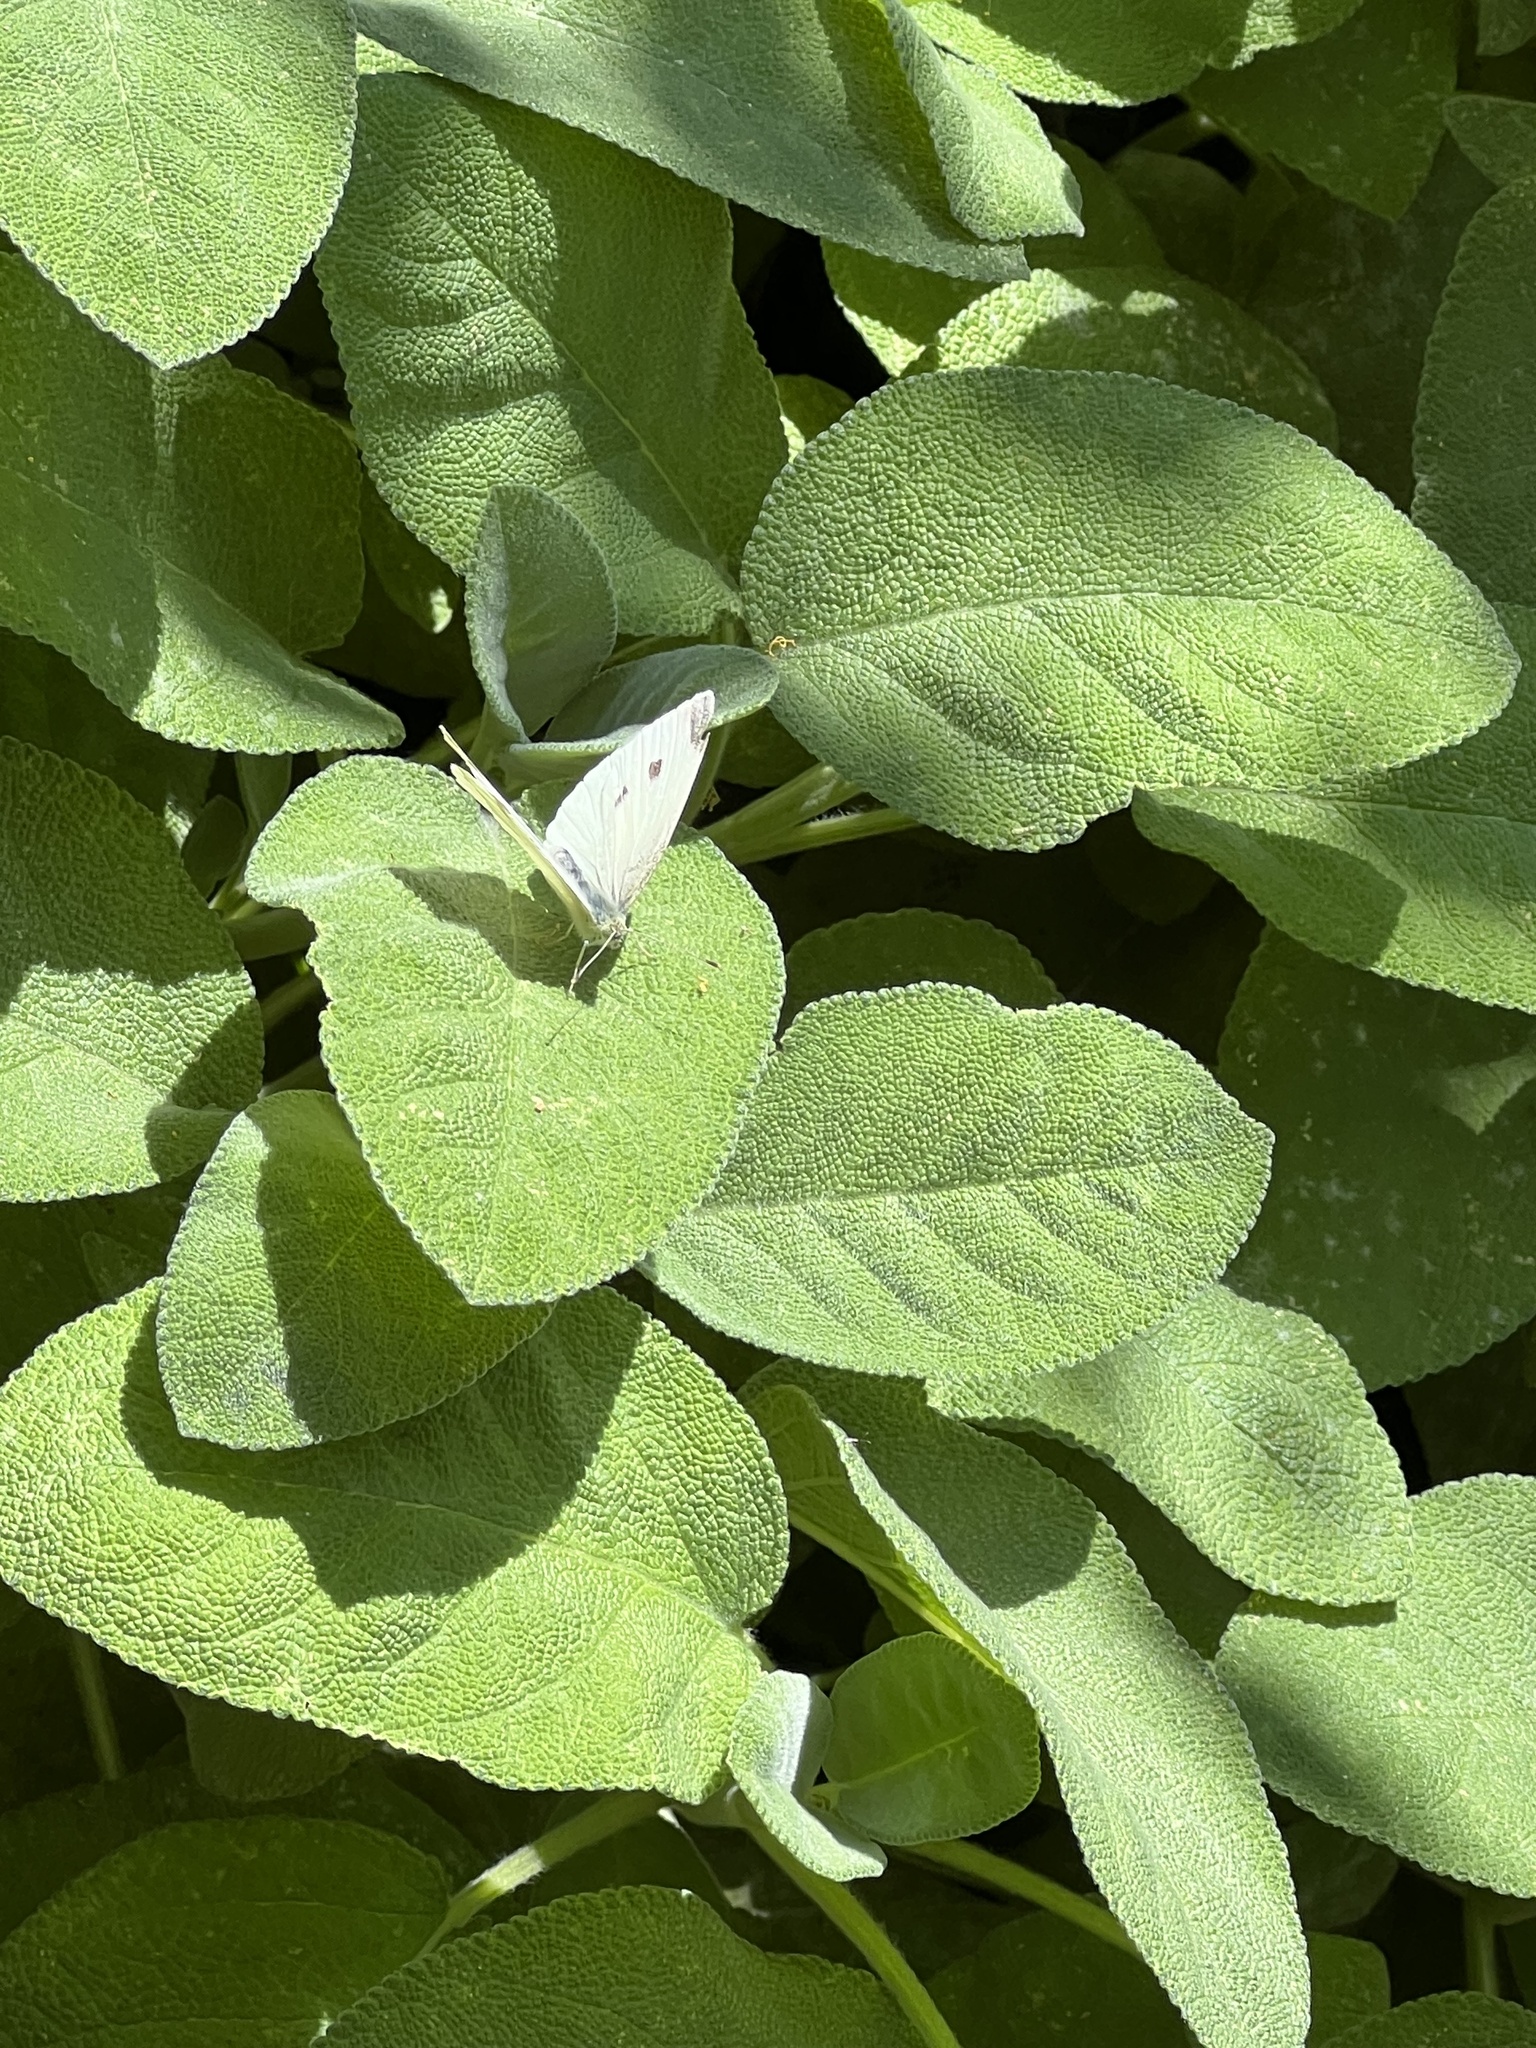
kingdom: Animalia
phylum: Arthropoda
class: Insecta
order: Lepidoptera
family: Pieridae
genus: Pieris
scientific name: Pieris rapae
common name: Small white
